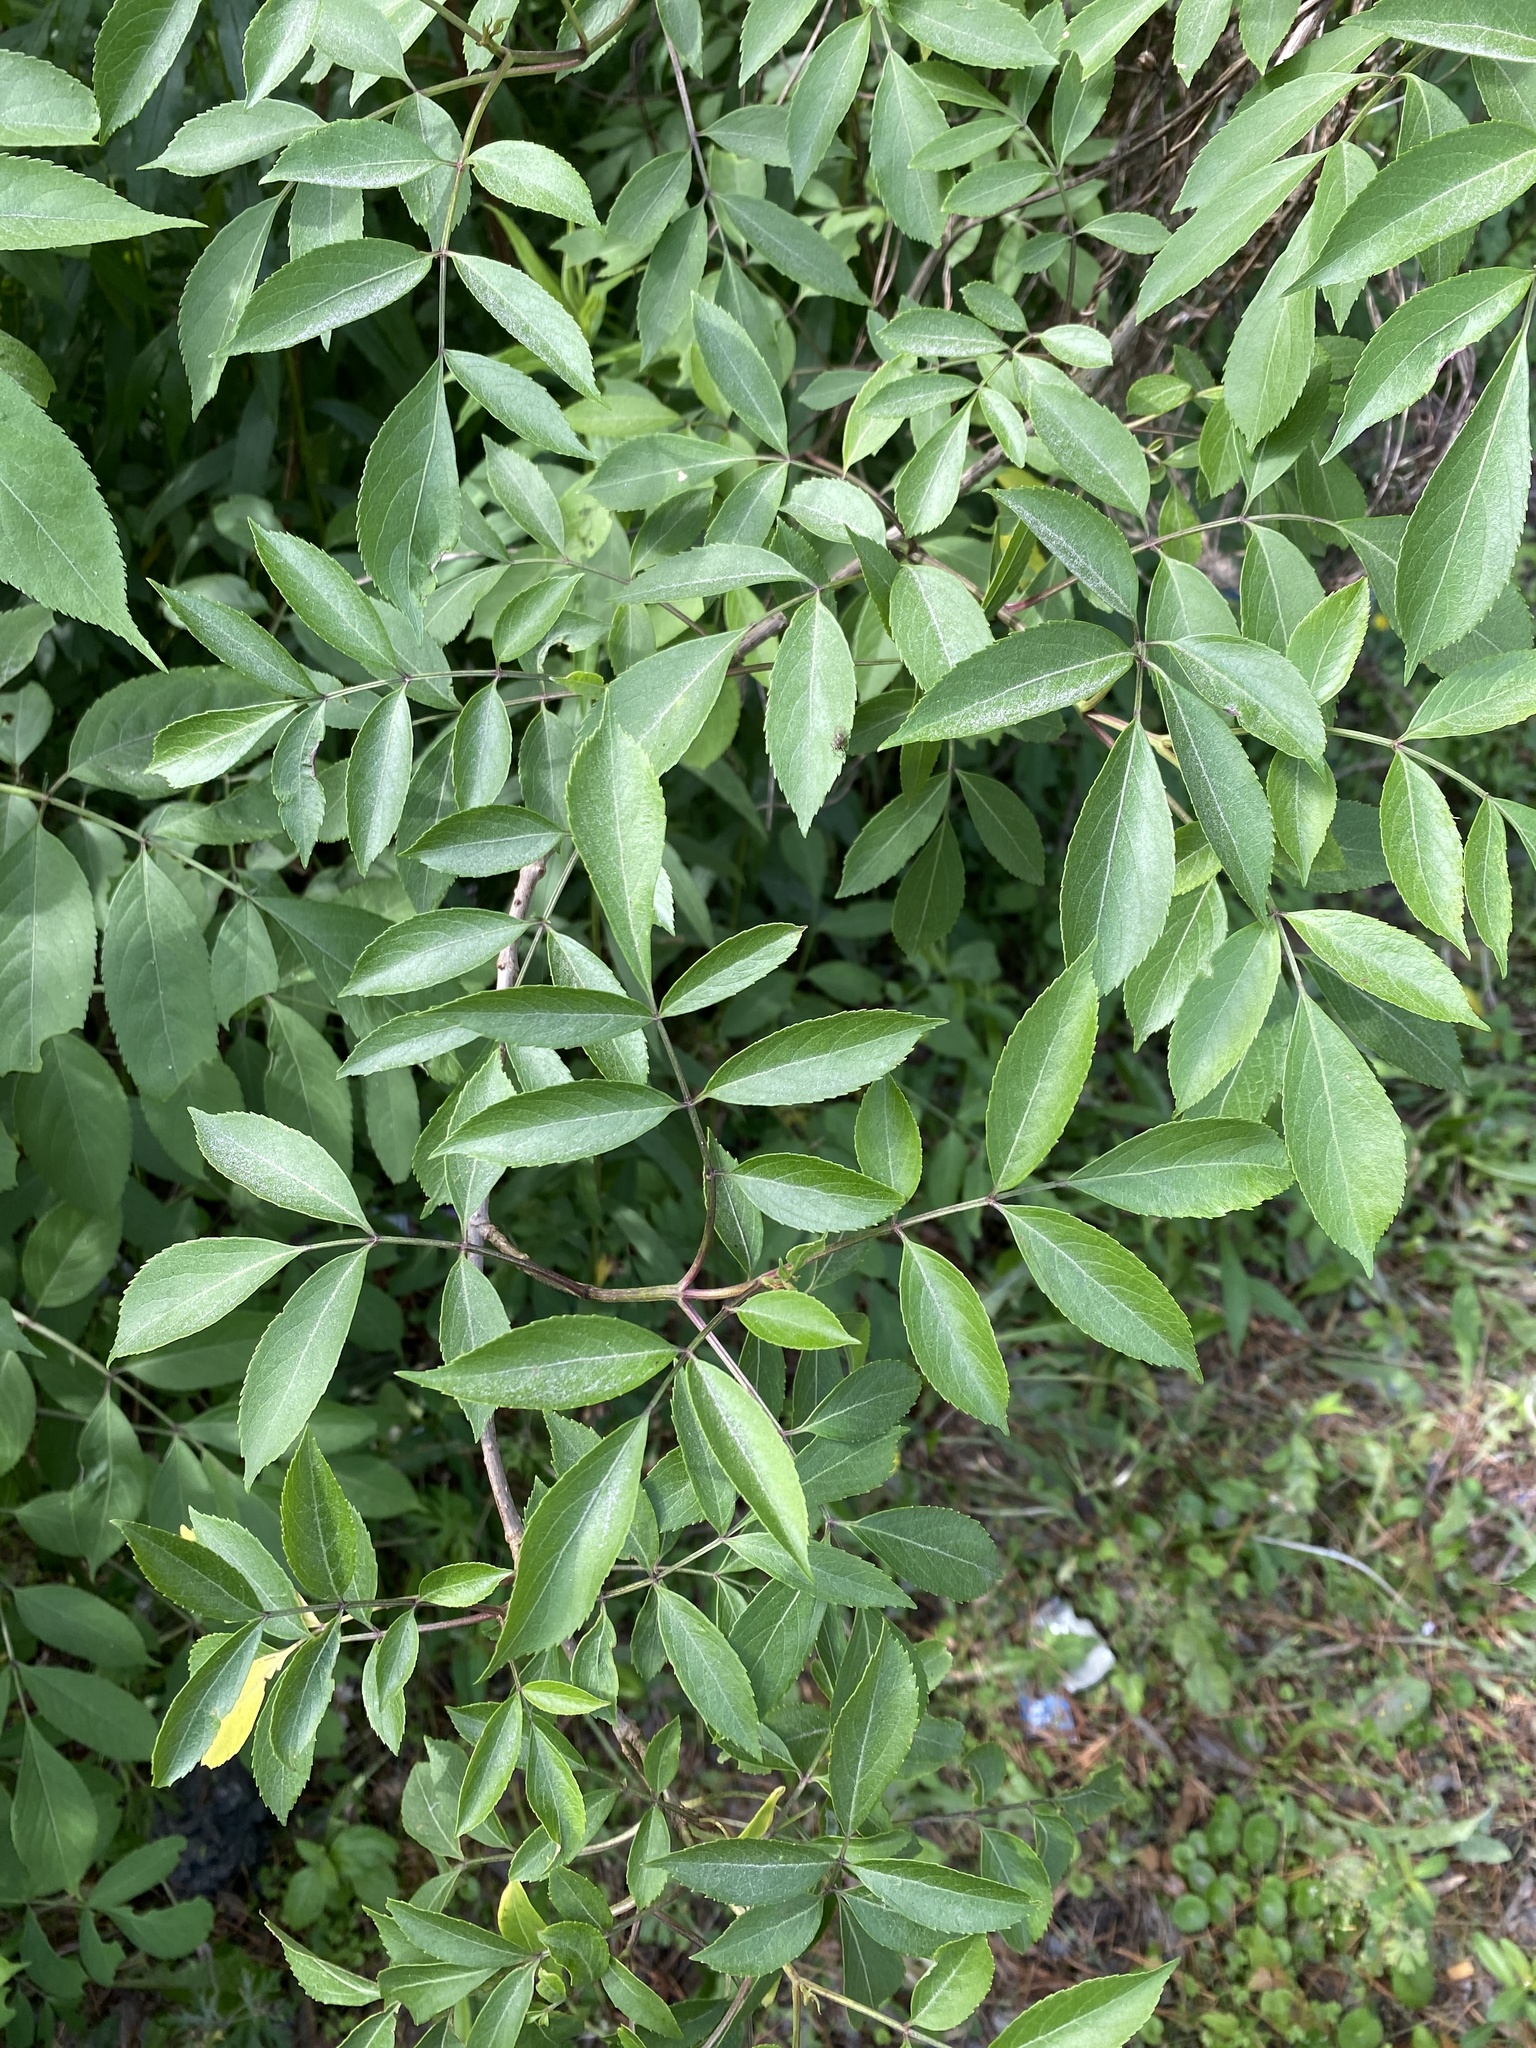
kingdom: Plantae
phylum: Tracheophyta
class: Magnoliopsida
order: Dipsacales
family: Viburnaceae
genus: Sambucus
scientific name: Sambucus canadensis
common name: American elder
